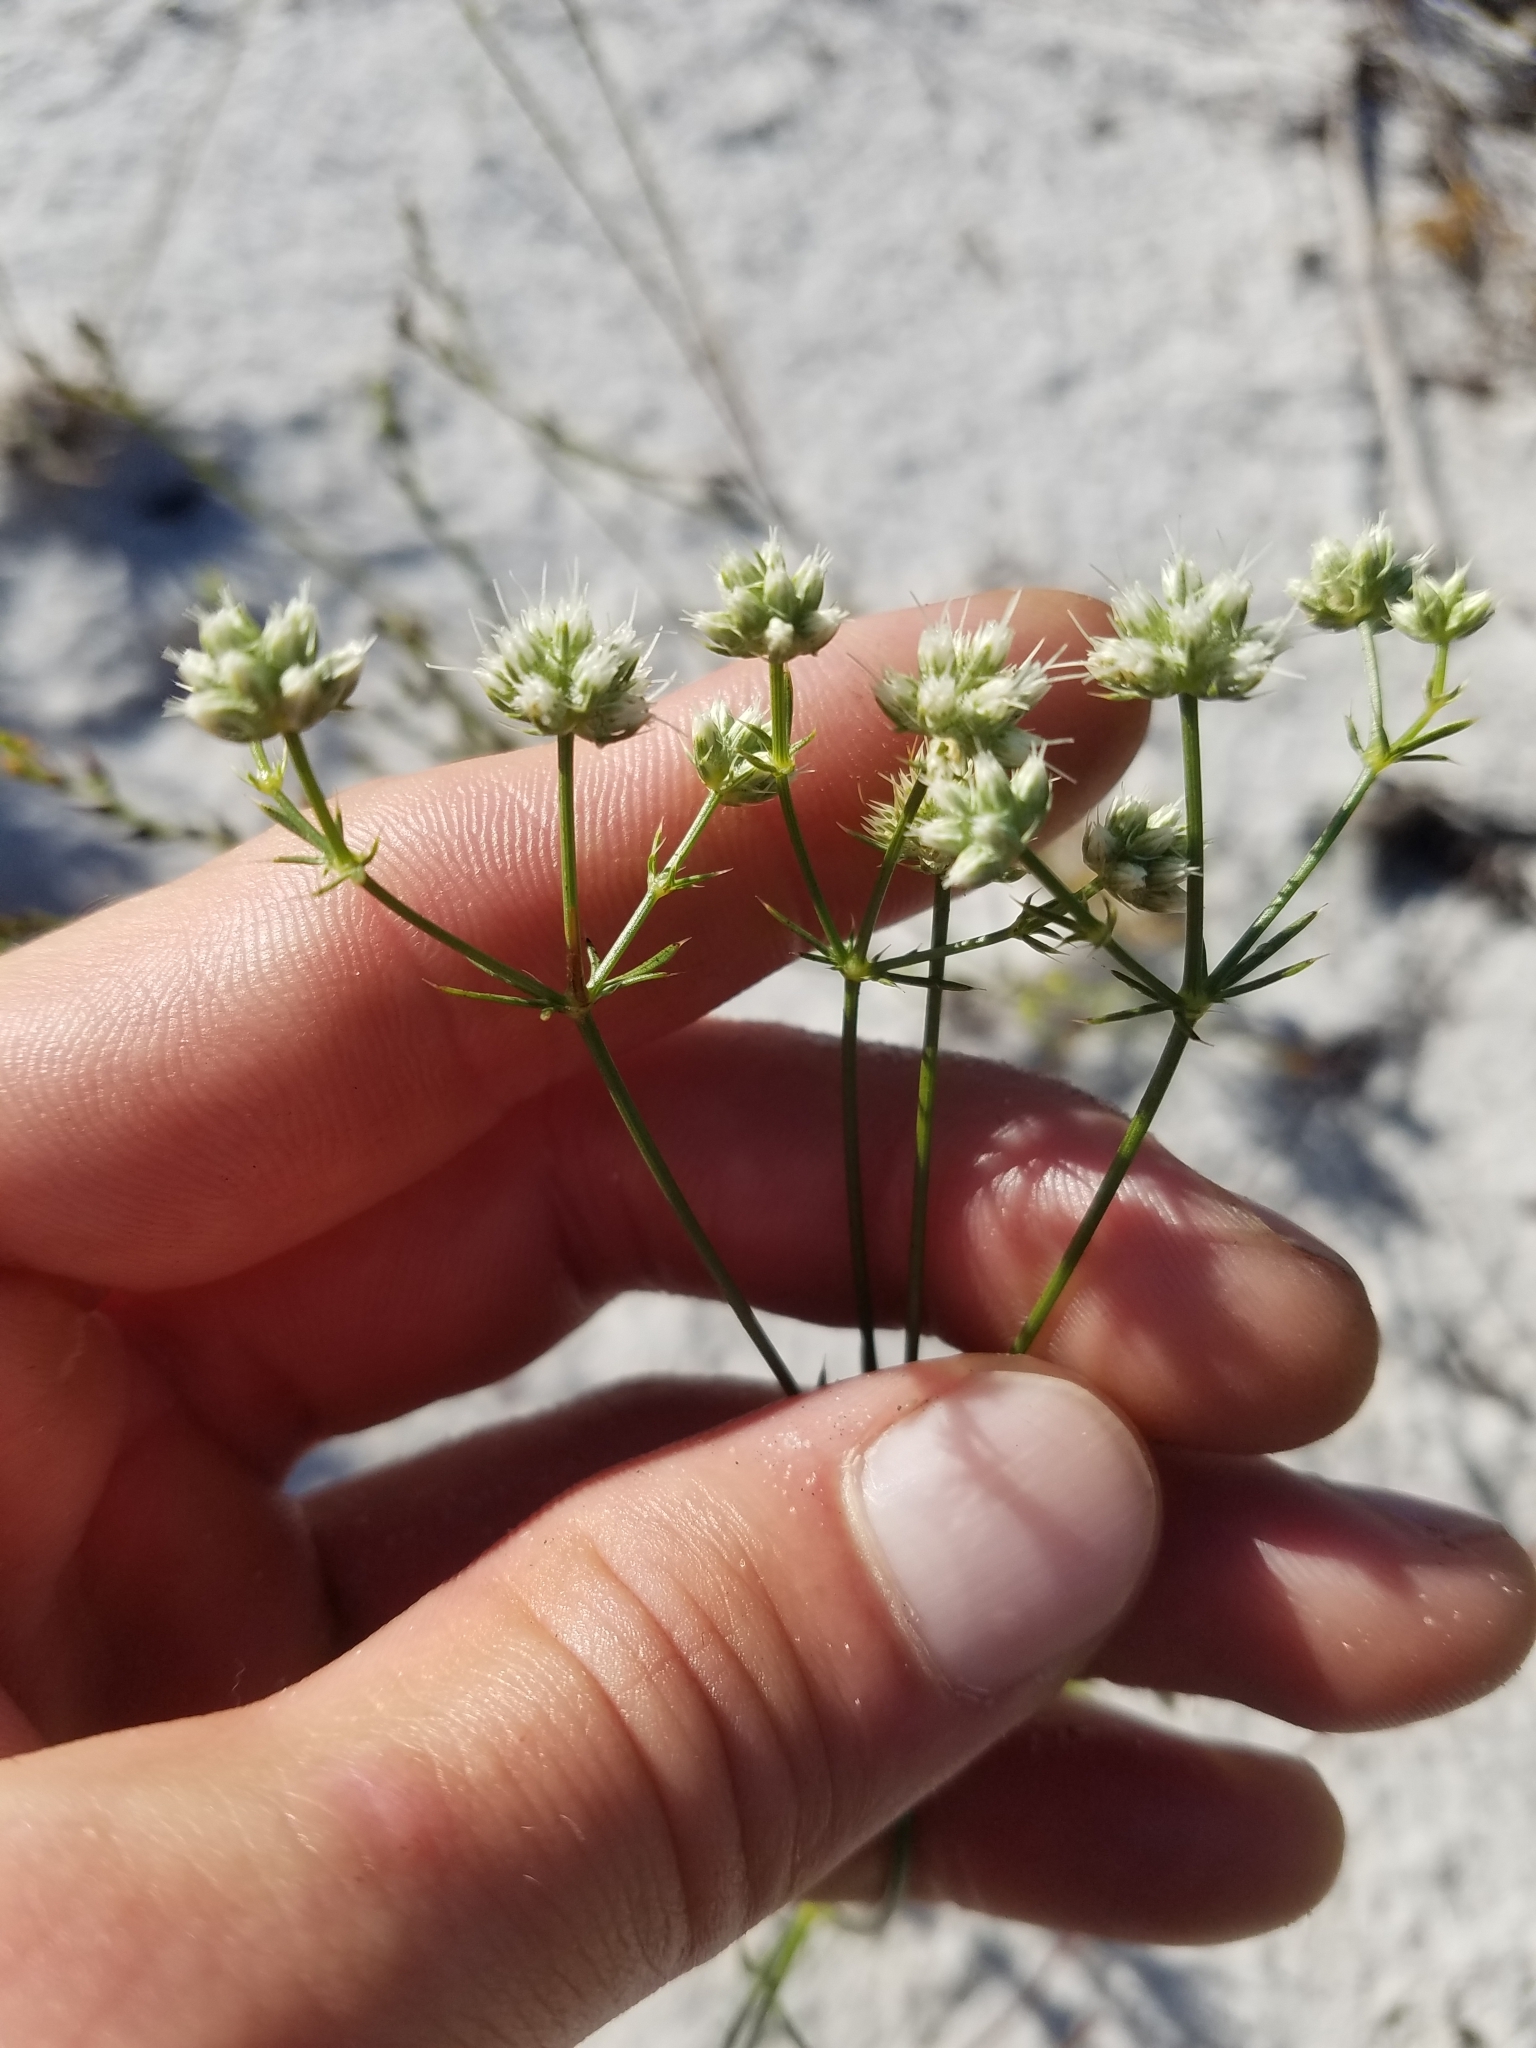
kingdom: Plantae
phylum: Tracheophyta
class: Magnoliopsida
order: Apiales
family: Apiaceae
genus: Eryngium
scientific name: Eryngium cuneifolium
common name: Snakeroot
